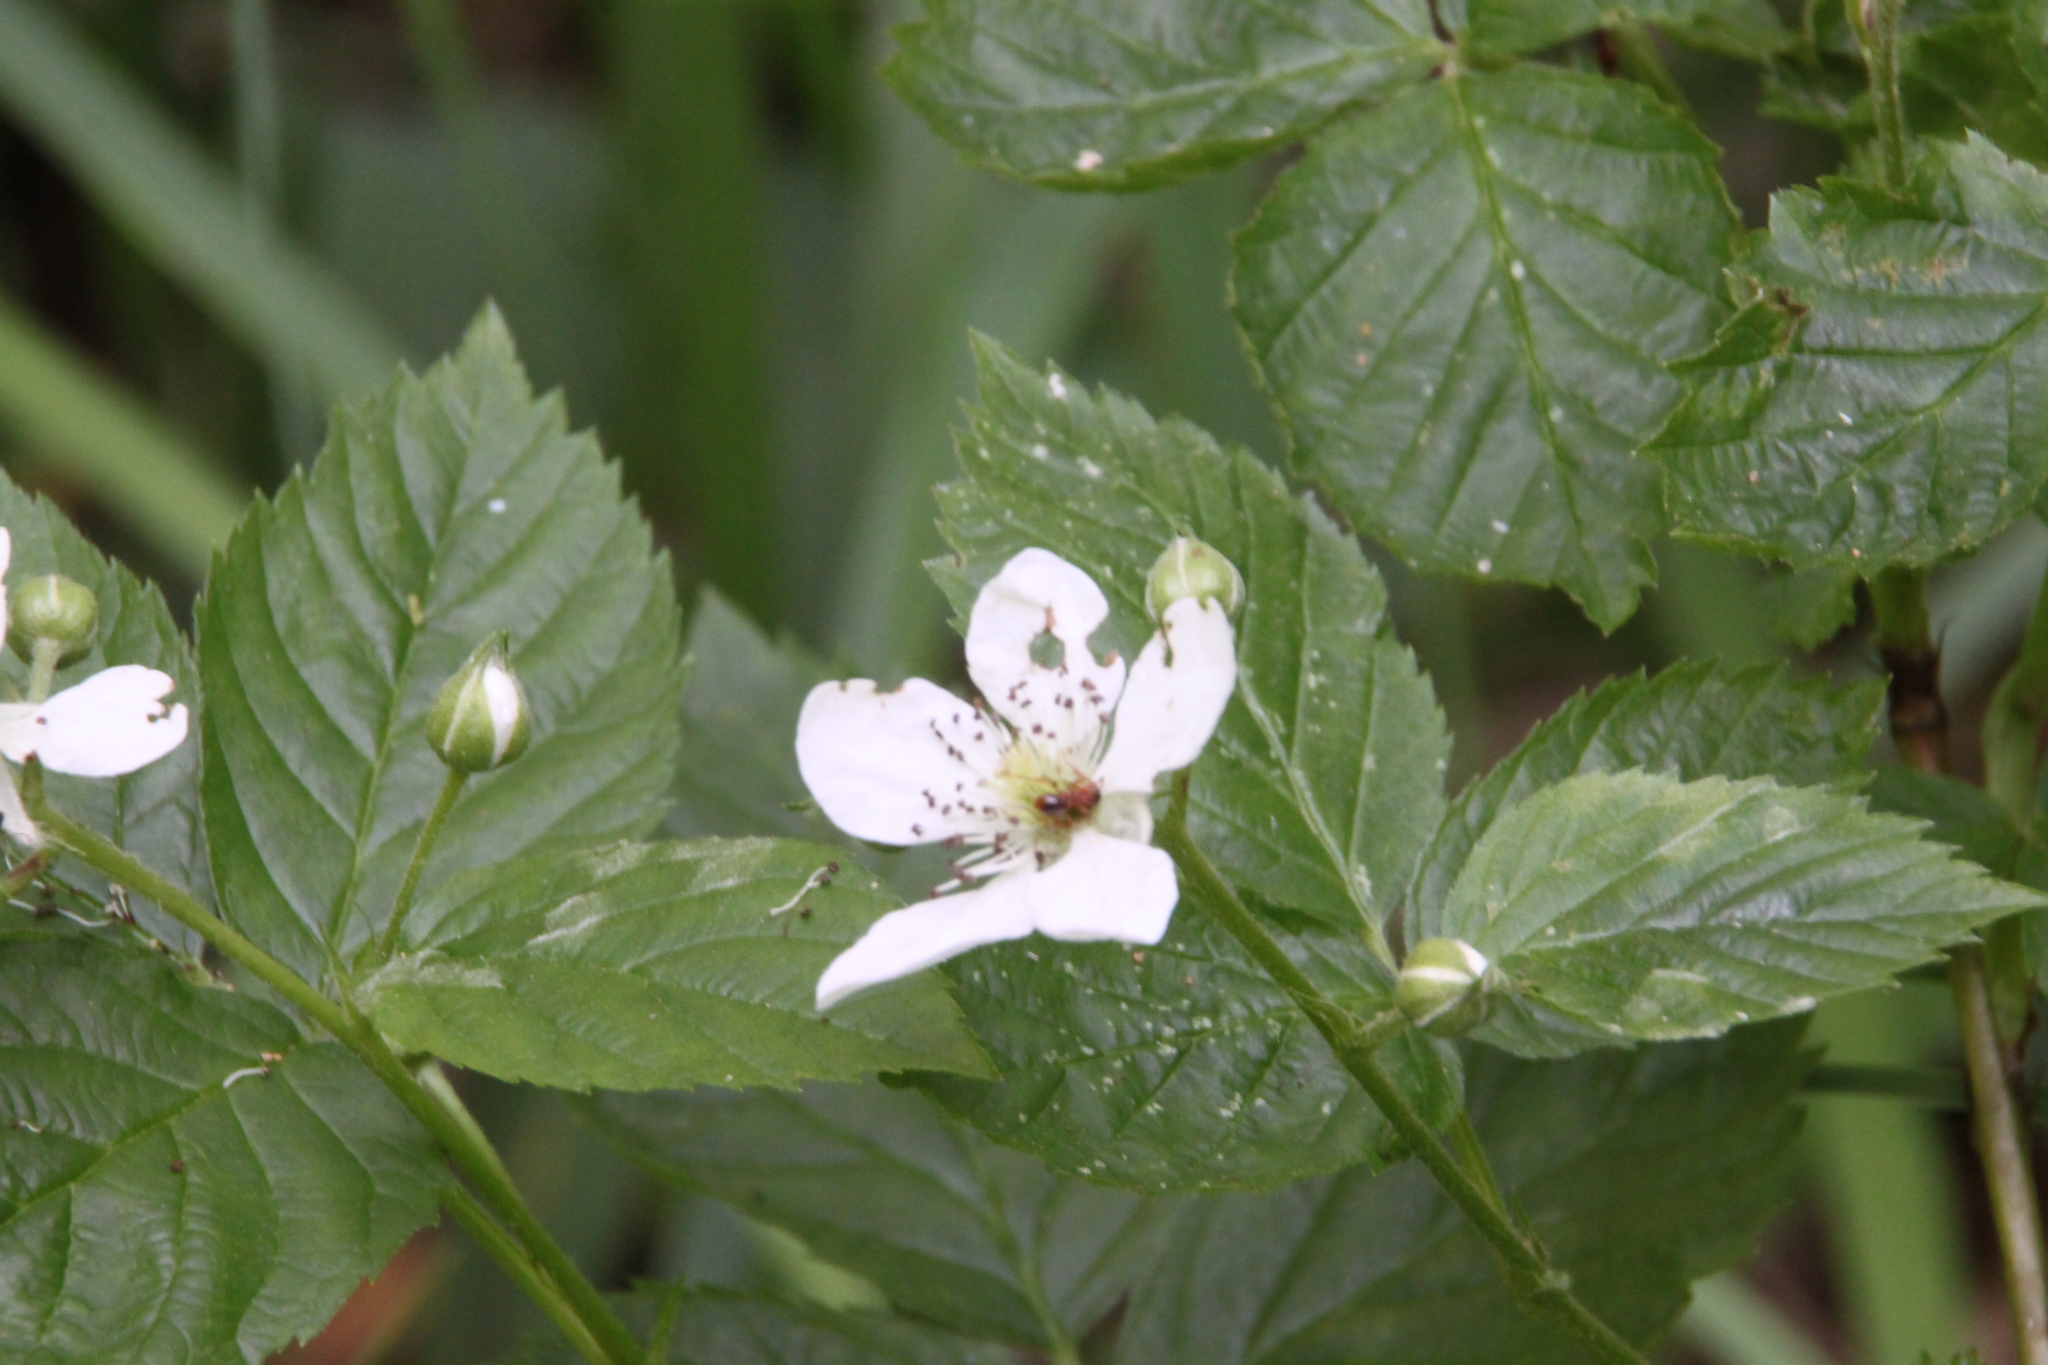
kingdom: Plantae
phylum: Tracheophyta
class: Magnoliopsida
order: Rosales
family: Rosaceae
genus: Rubus
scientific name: Rubus polonicus
